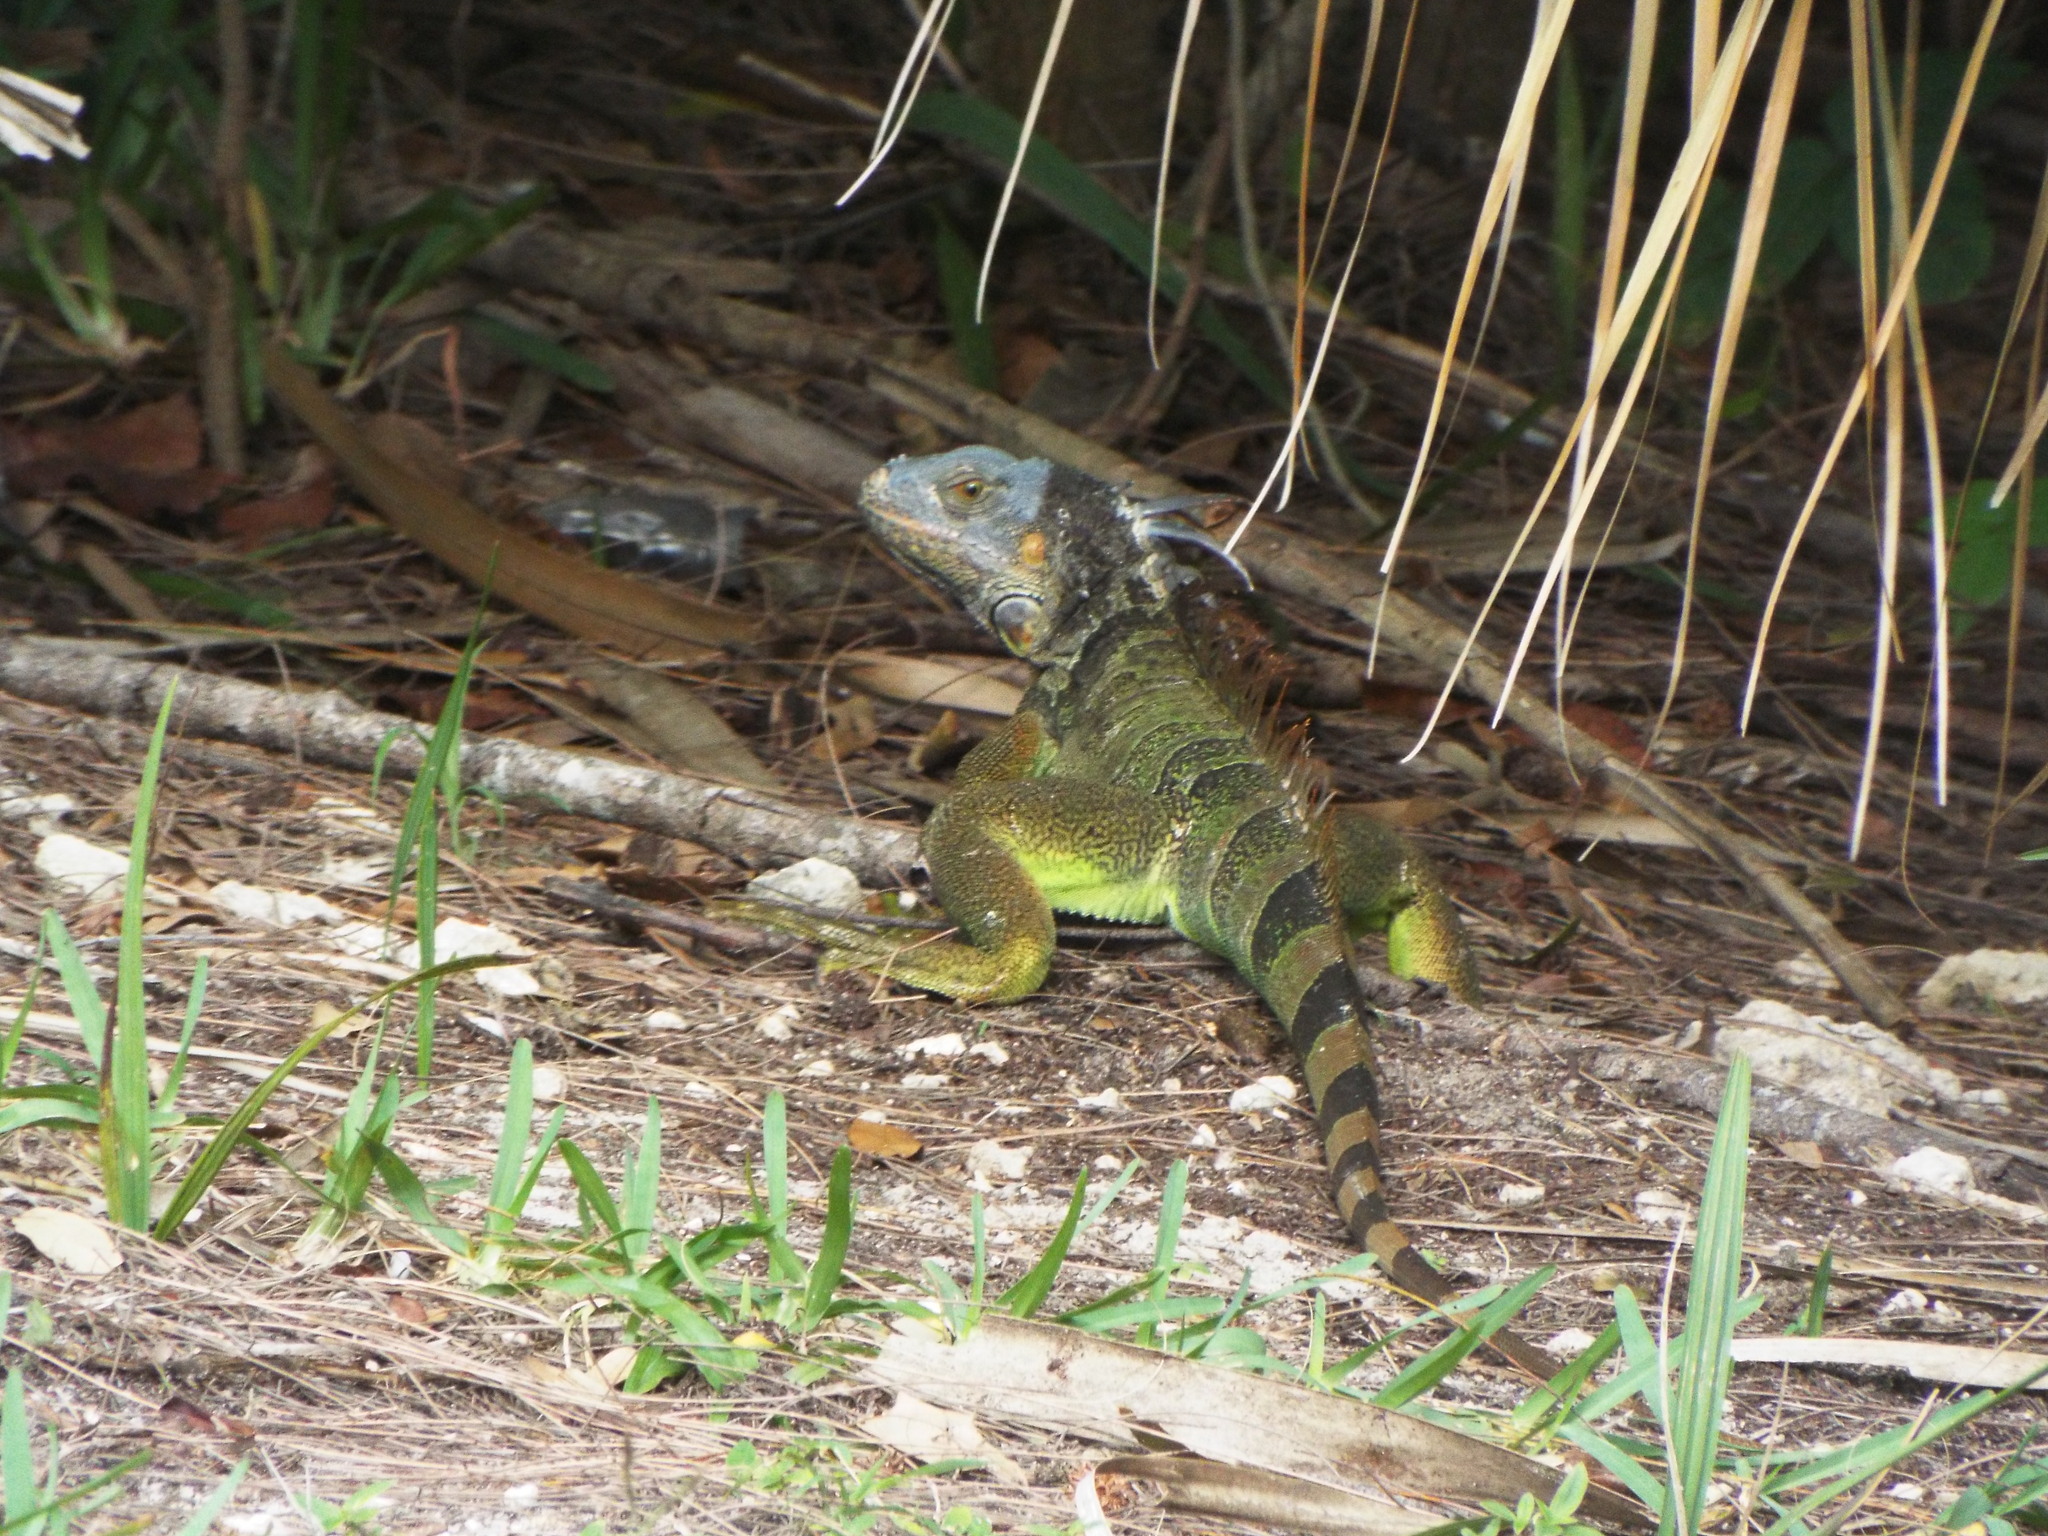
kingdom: Animalia
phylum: Chordata
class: Squamata
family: Iguanidae
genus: Iguana
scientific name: Iguana iguana
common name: Green iguana
